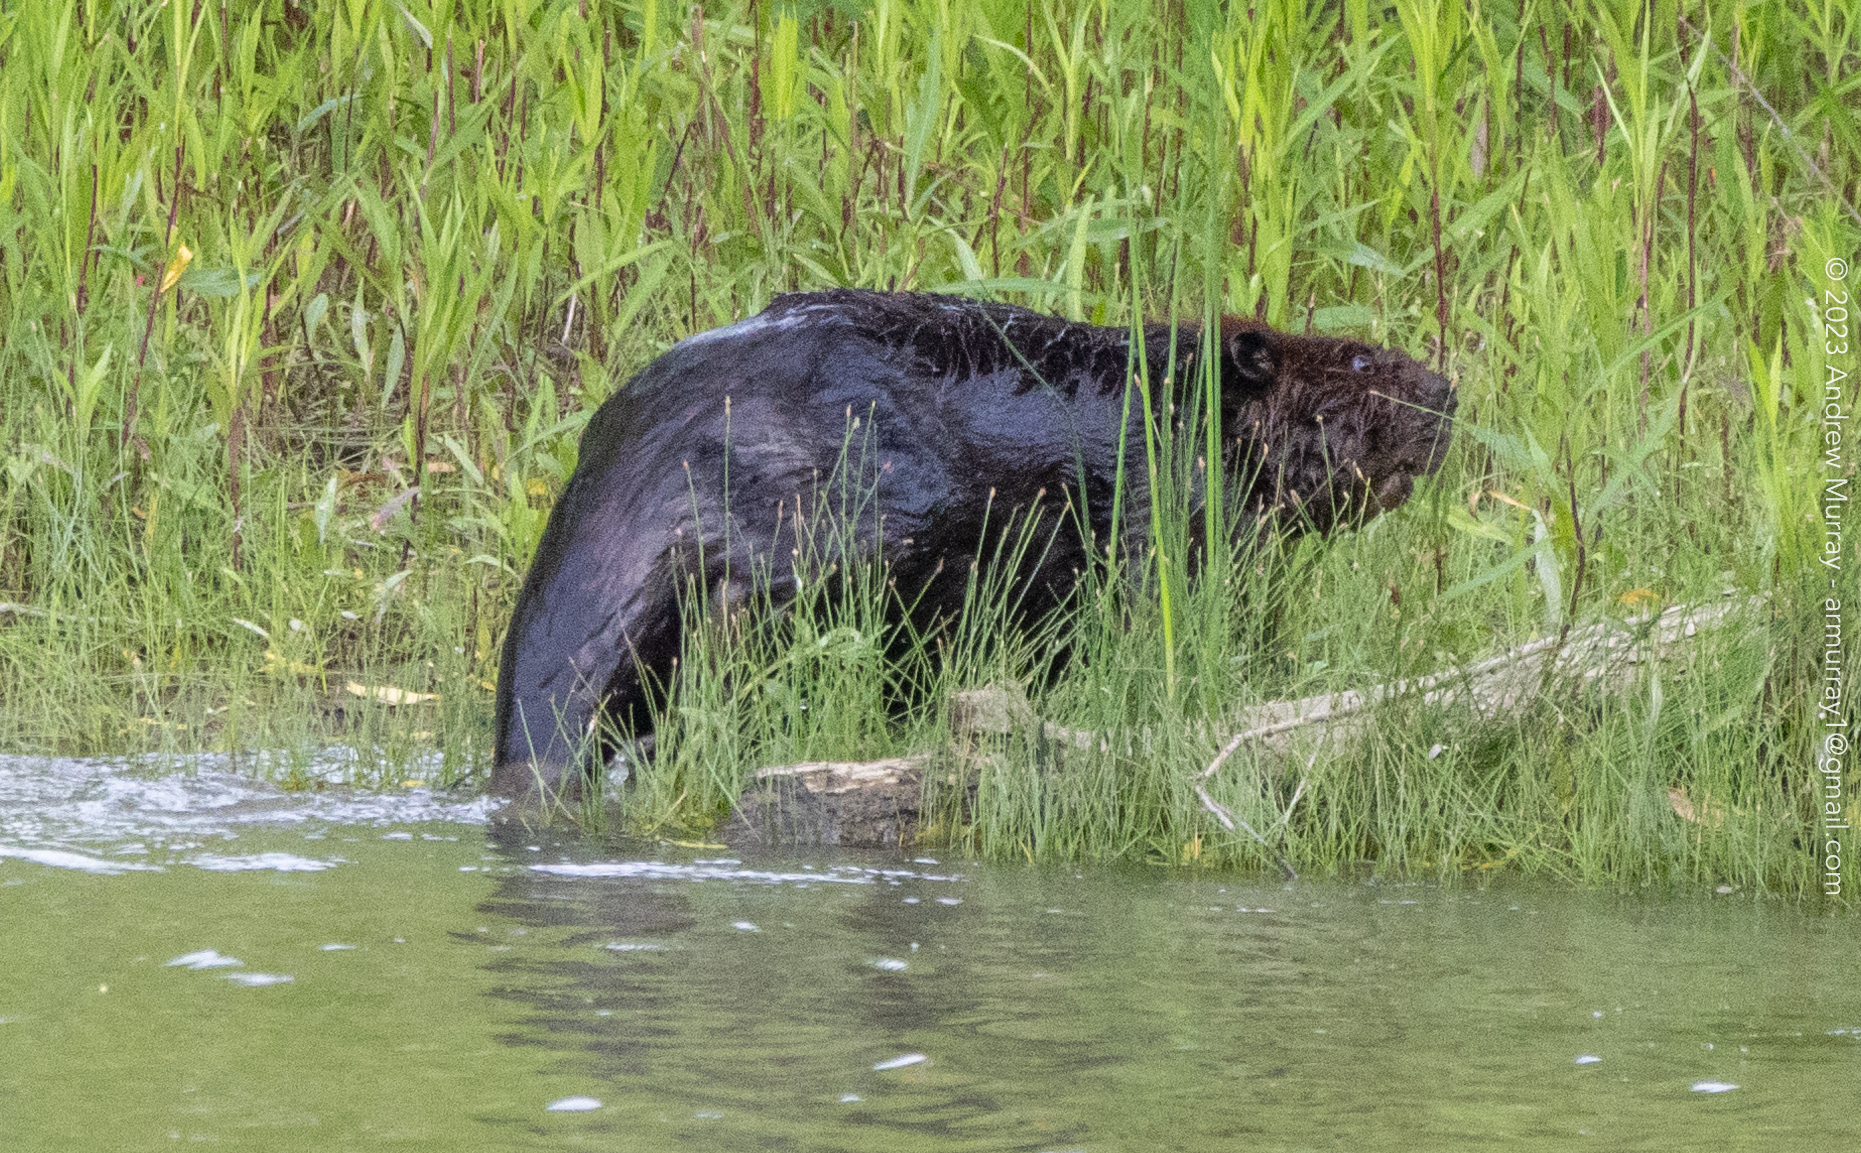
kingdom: Animalia
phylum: Chordata
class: Mammalia
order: Rodentia
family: Castoridae
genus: Castor
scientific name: Castor canadensis
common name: American beaver
